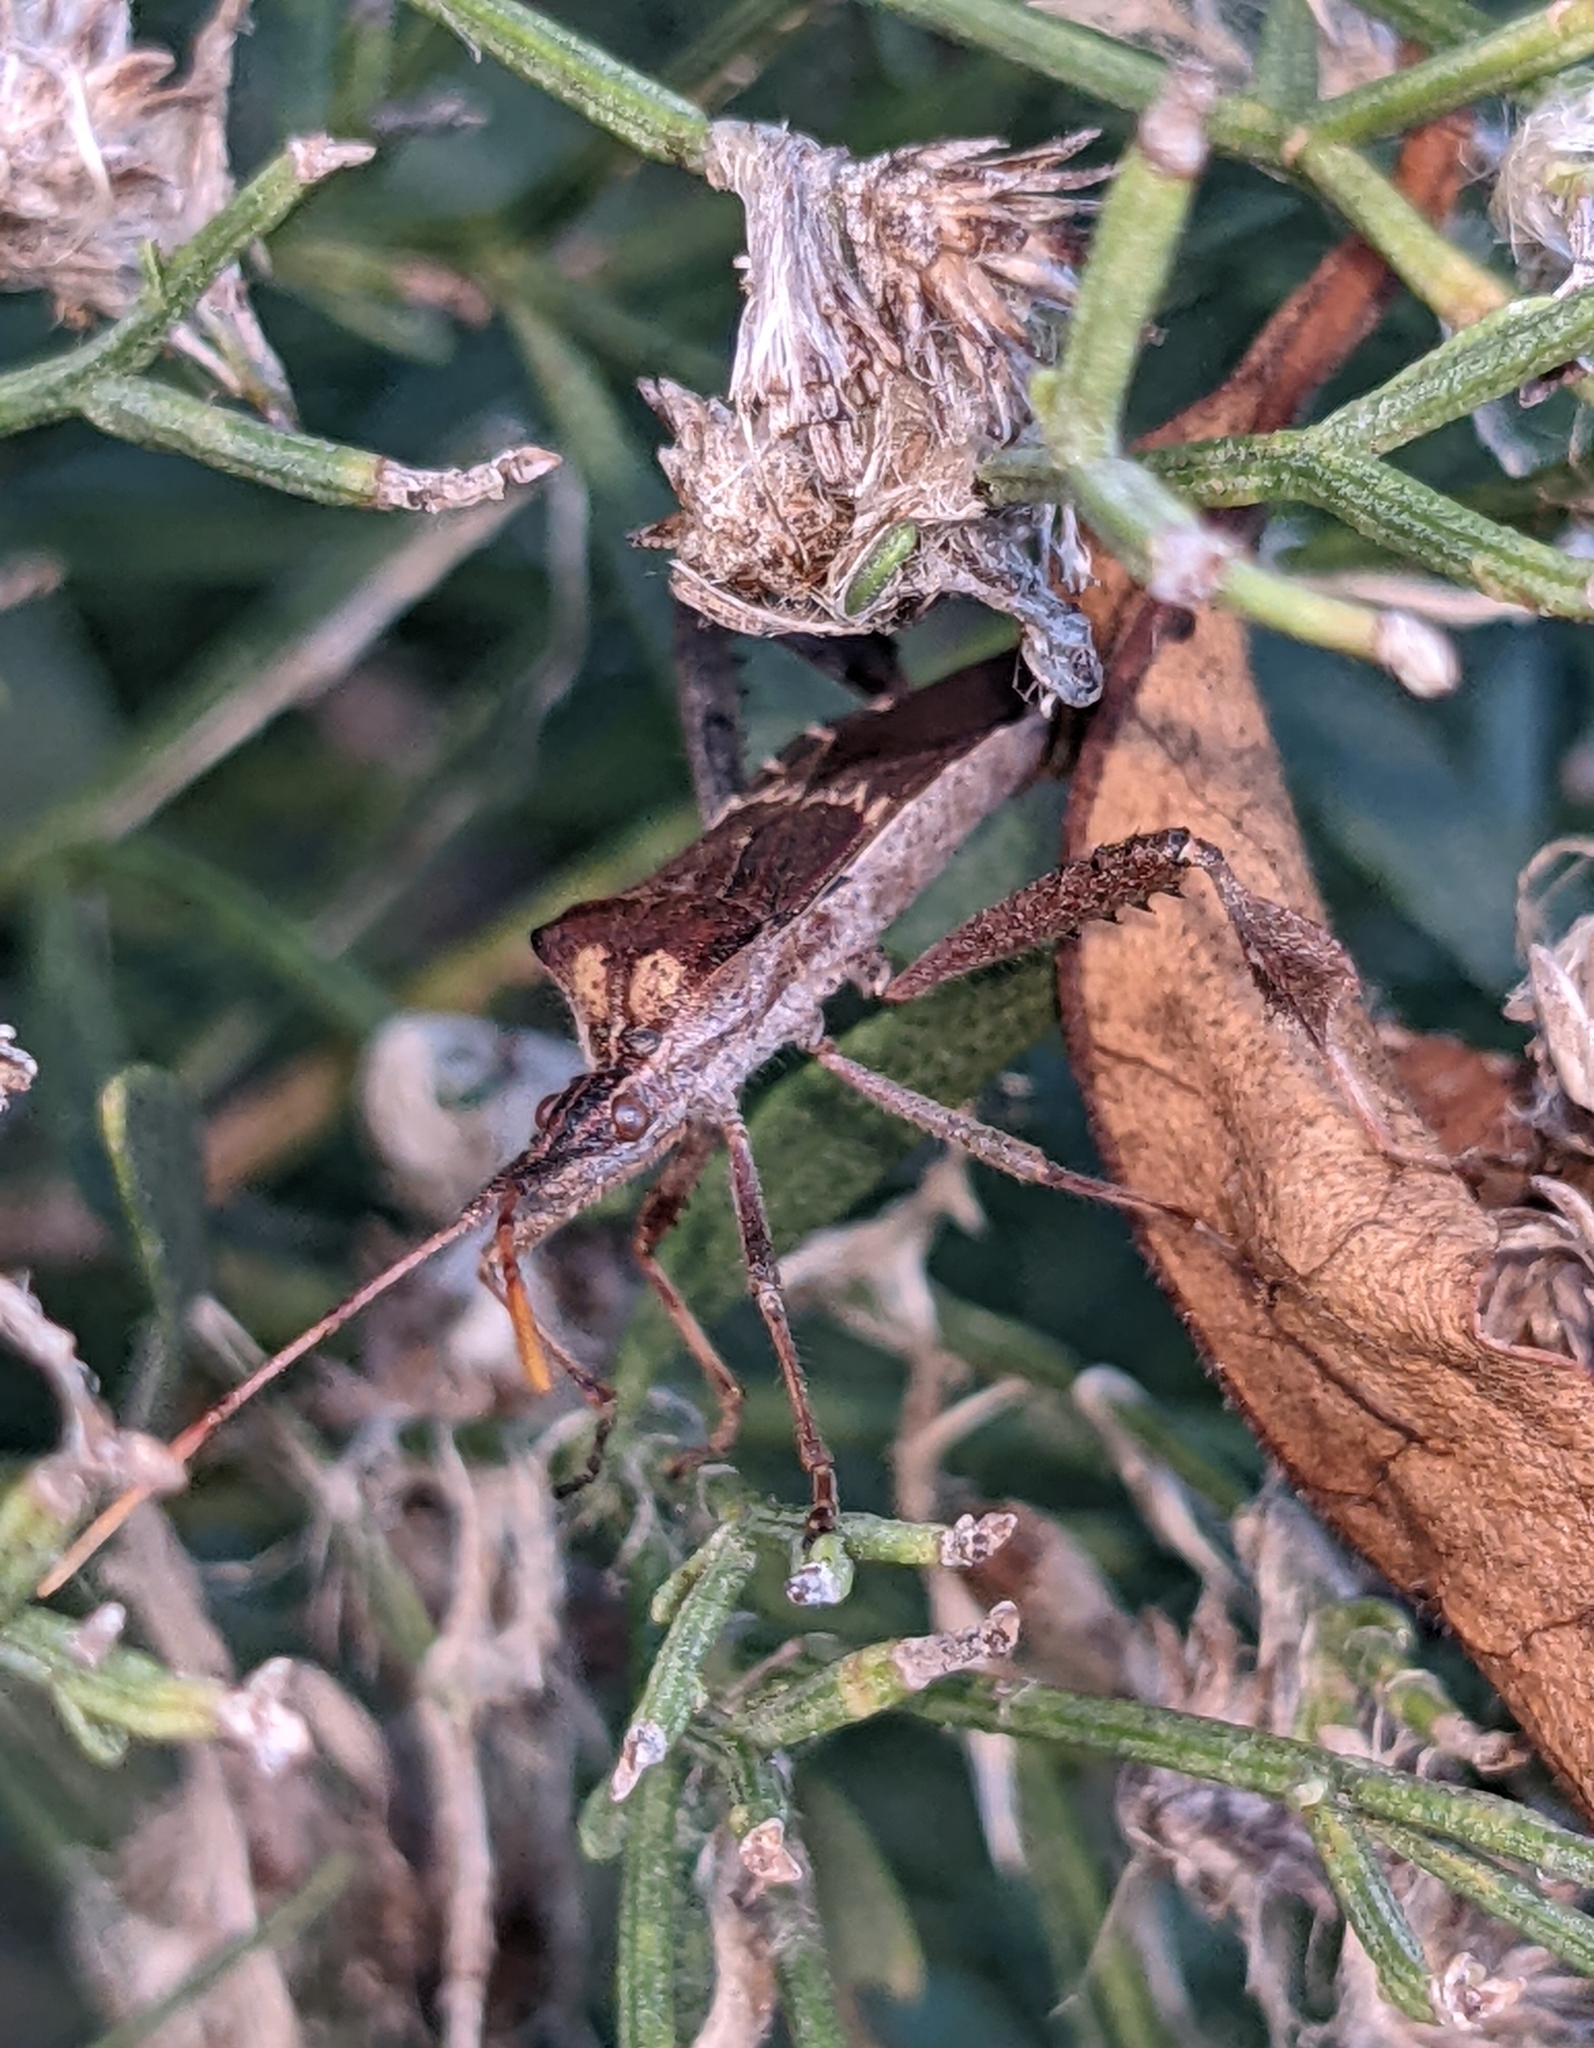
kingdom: Animalia
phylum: Arthropoda
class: Insecta
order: Hemiptera
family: Coreidae
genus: Leptoglossus
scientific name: Leptoglossus zonatus
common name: Large-legged bug
